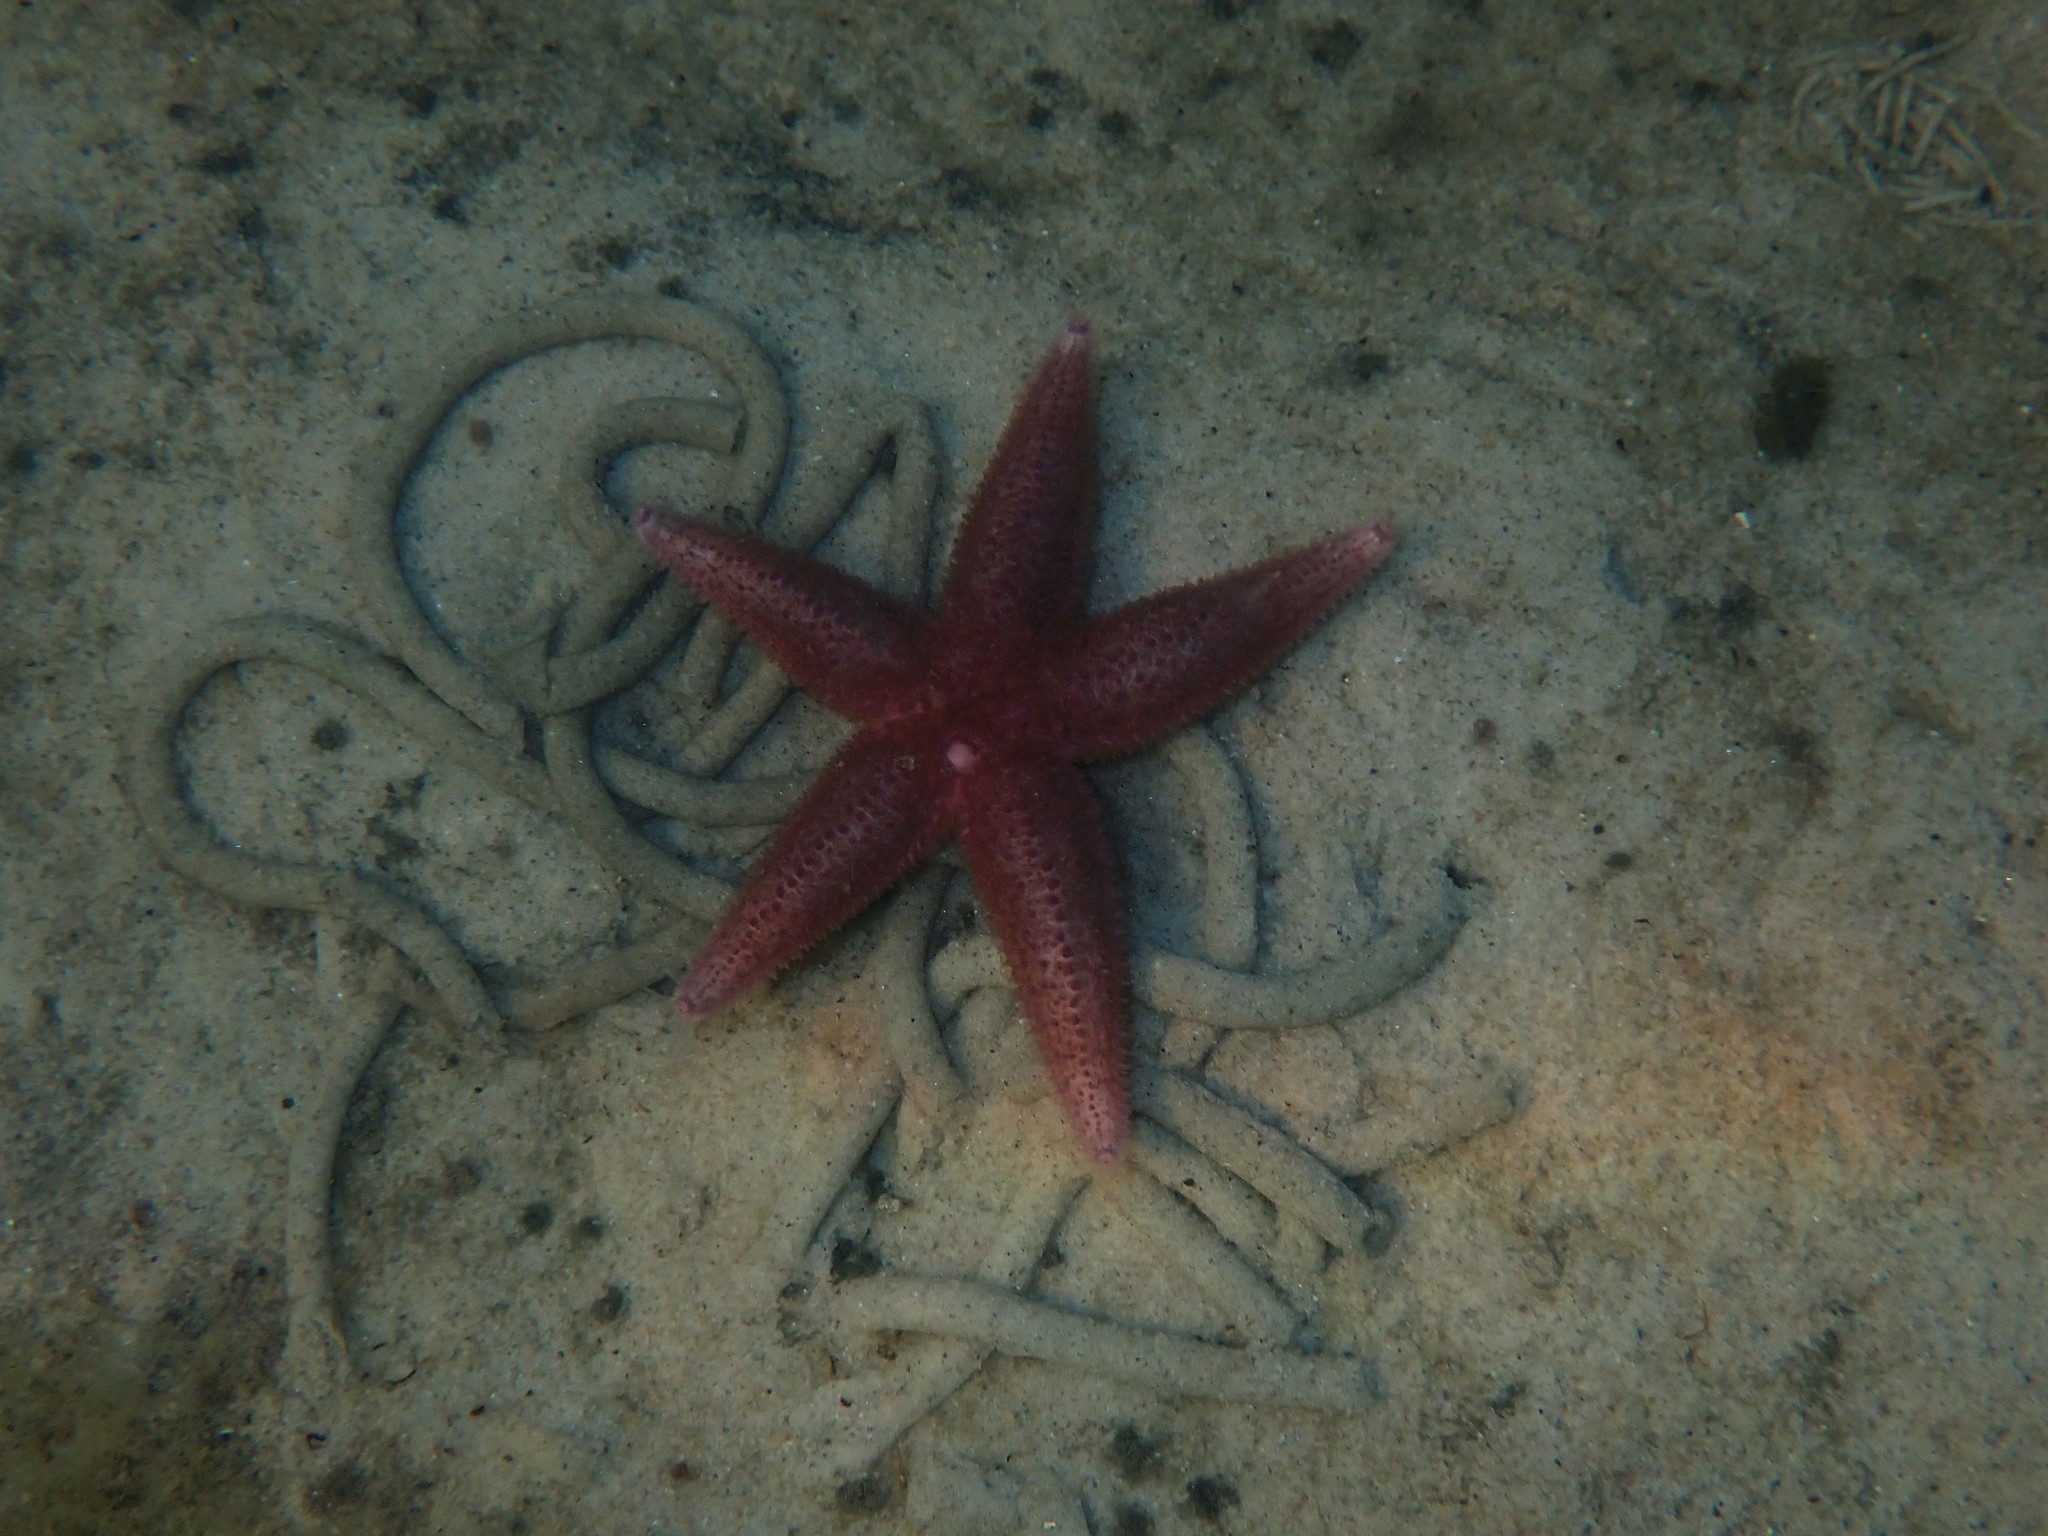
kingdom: Animalia
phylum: Echinodermata
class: Asteroidea
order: Forcipulatida
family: Asteriidae
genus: Asterias
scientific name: Asterias rubens
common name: Common starfish
